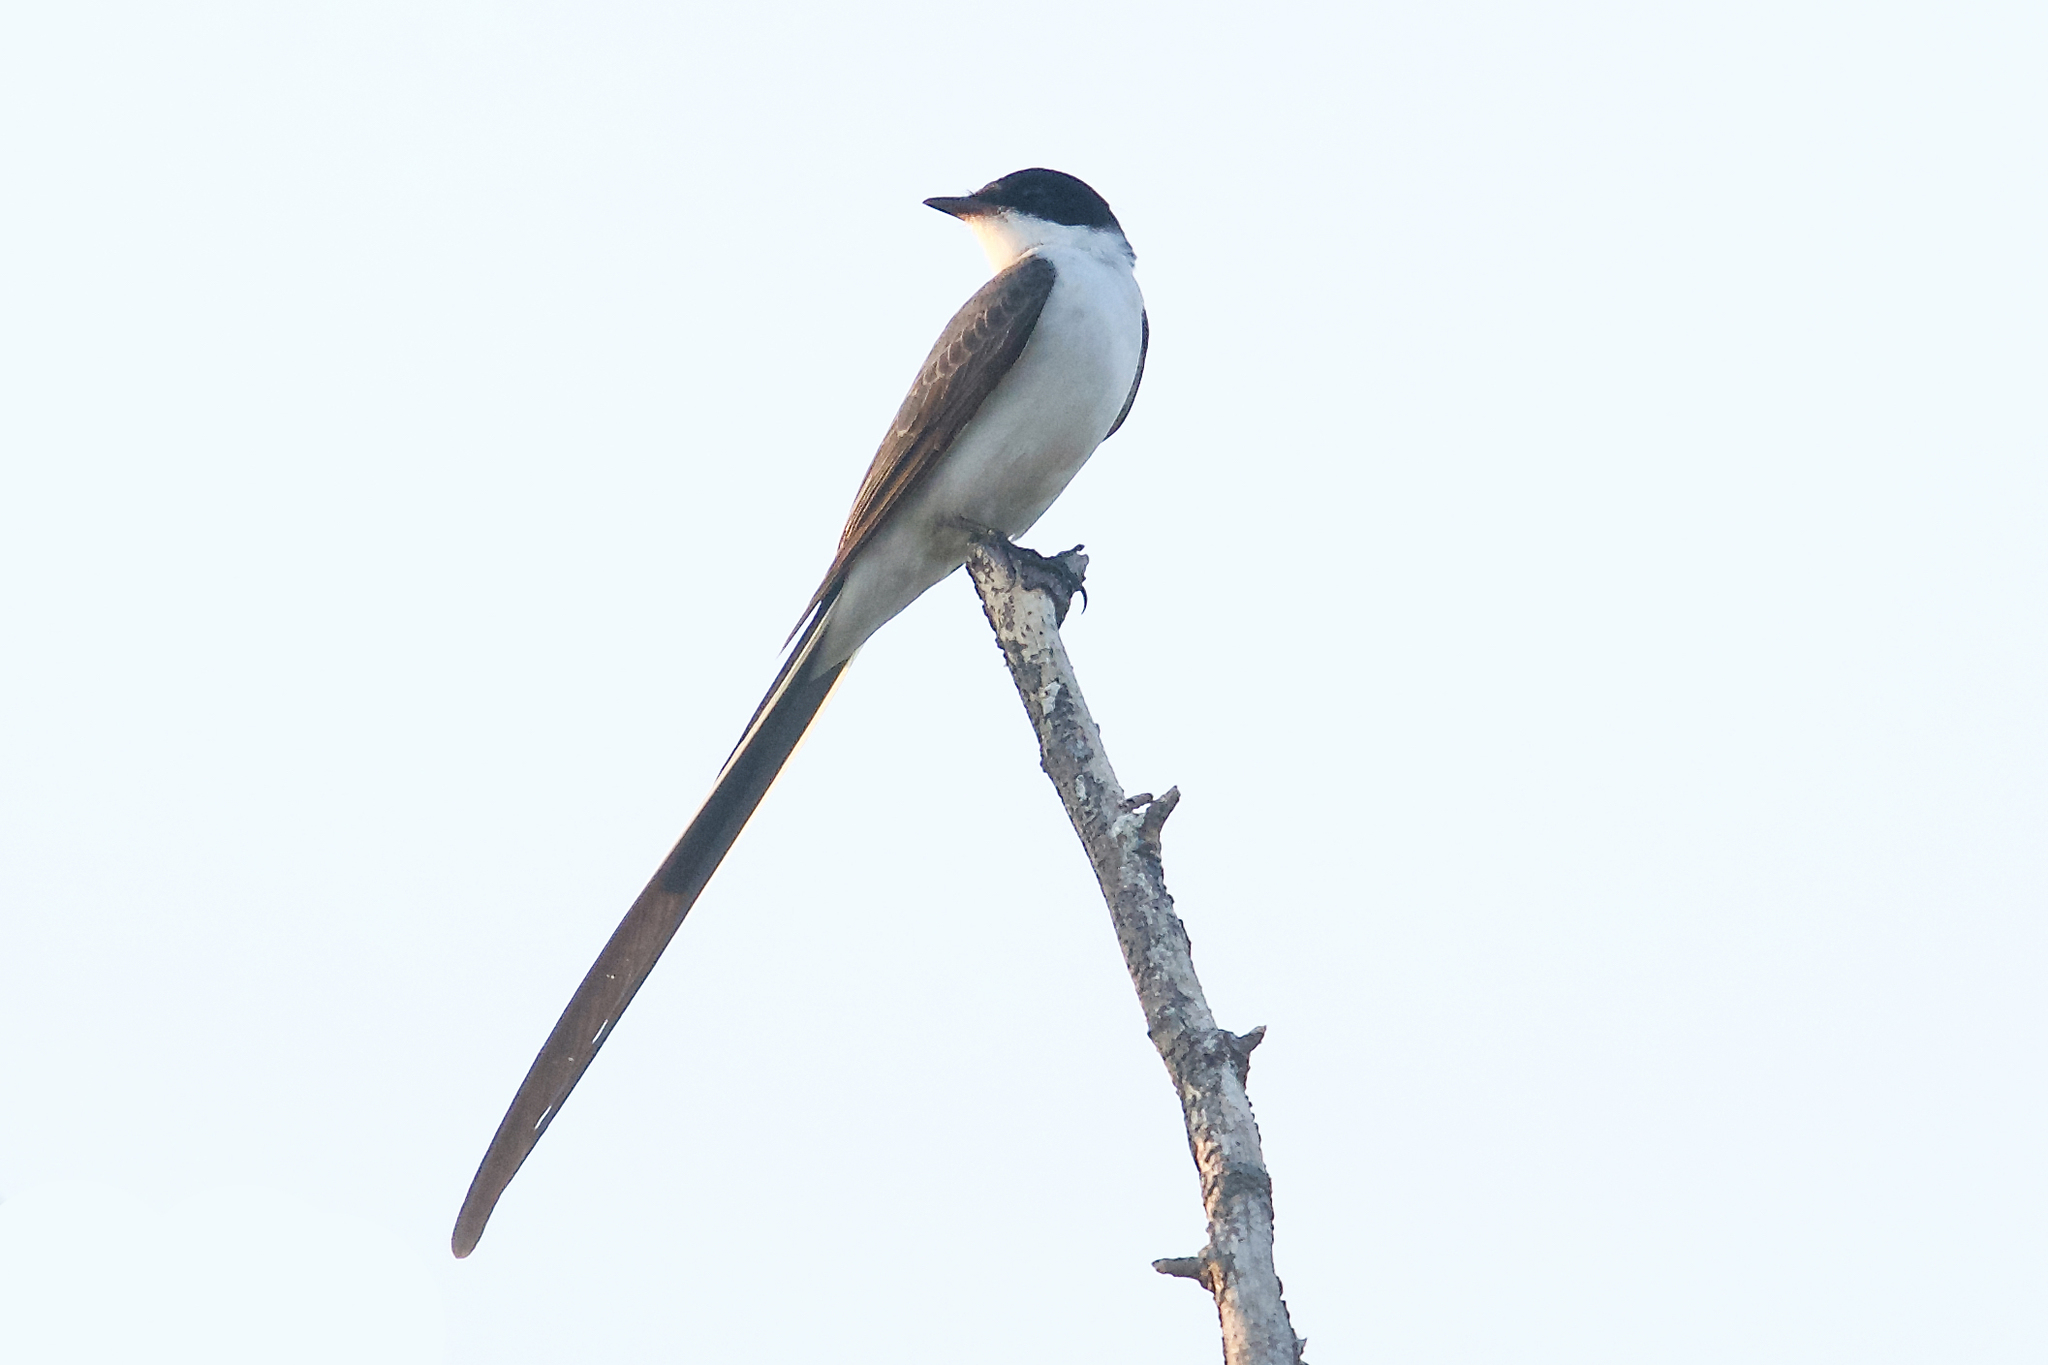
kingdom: Animalia
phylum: Chordata
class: Aves
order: Passeriformes
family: Tyrannidae
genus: Tyrannus
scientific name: Tyrannus savana
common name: Fork-tailed flycatcher
